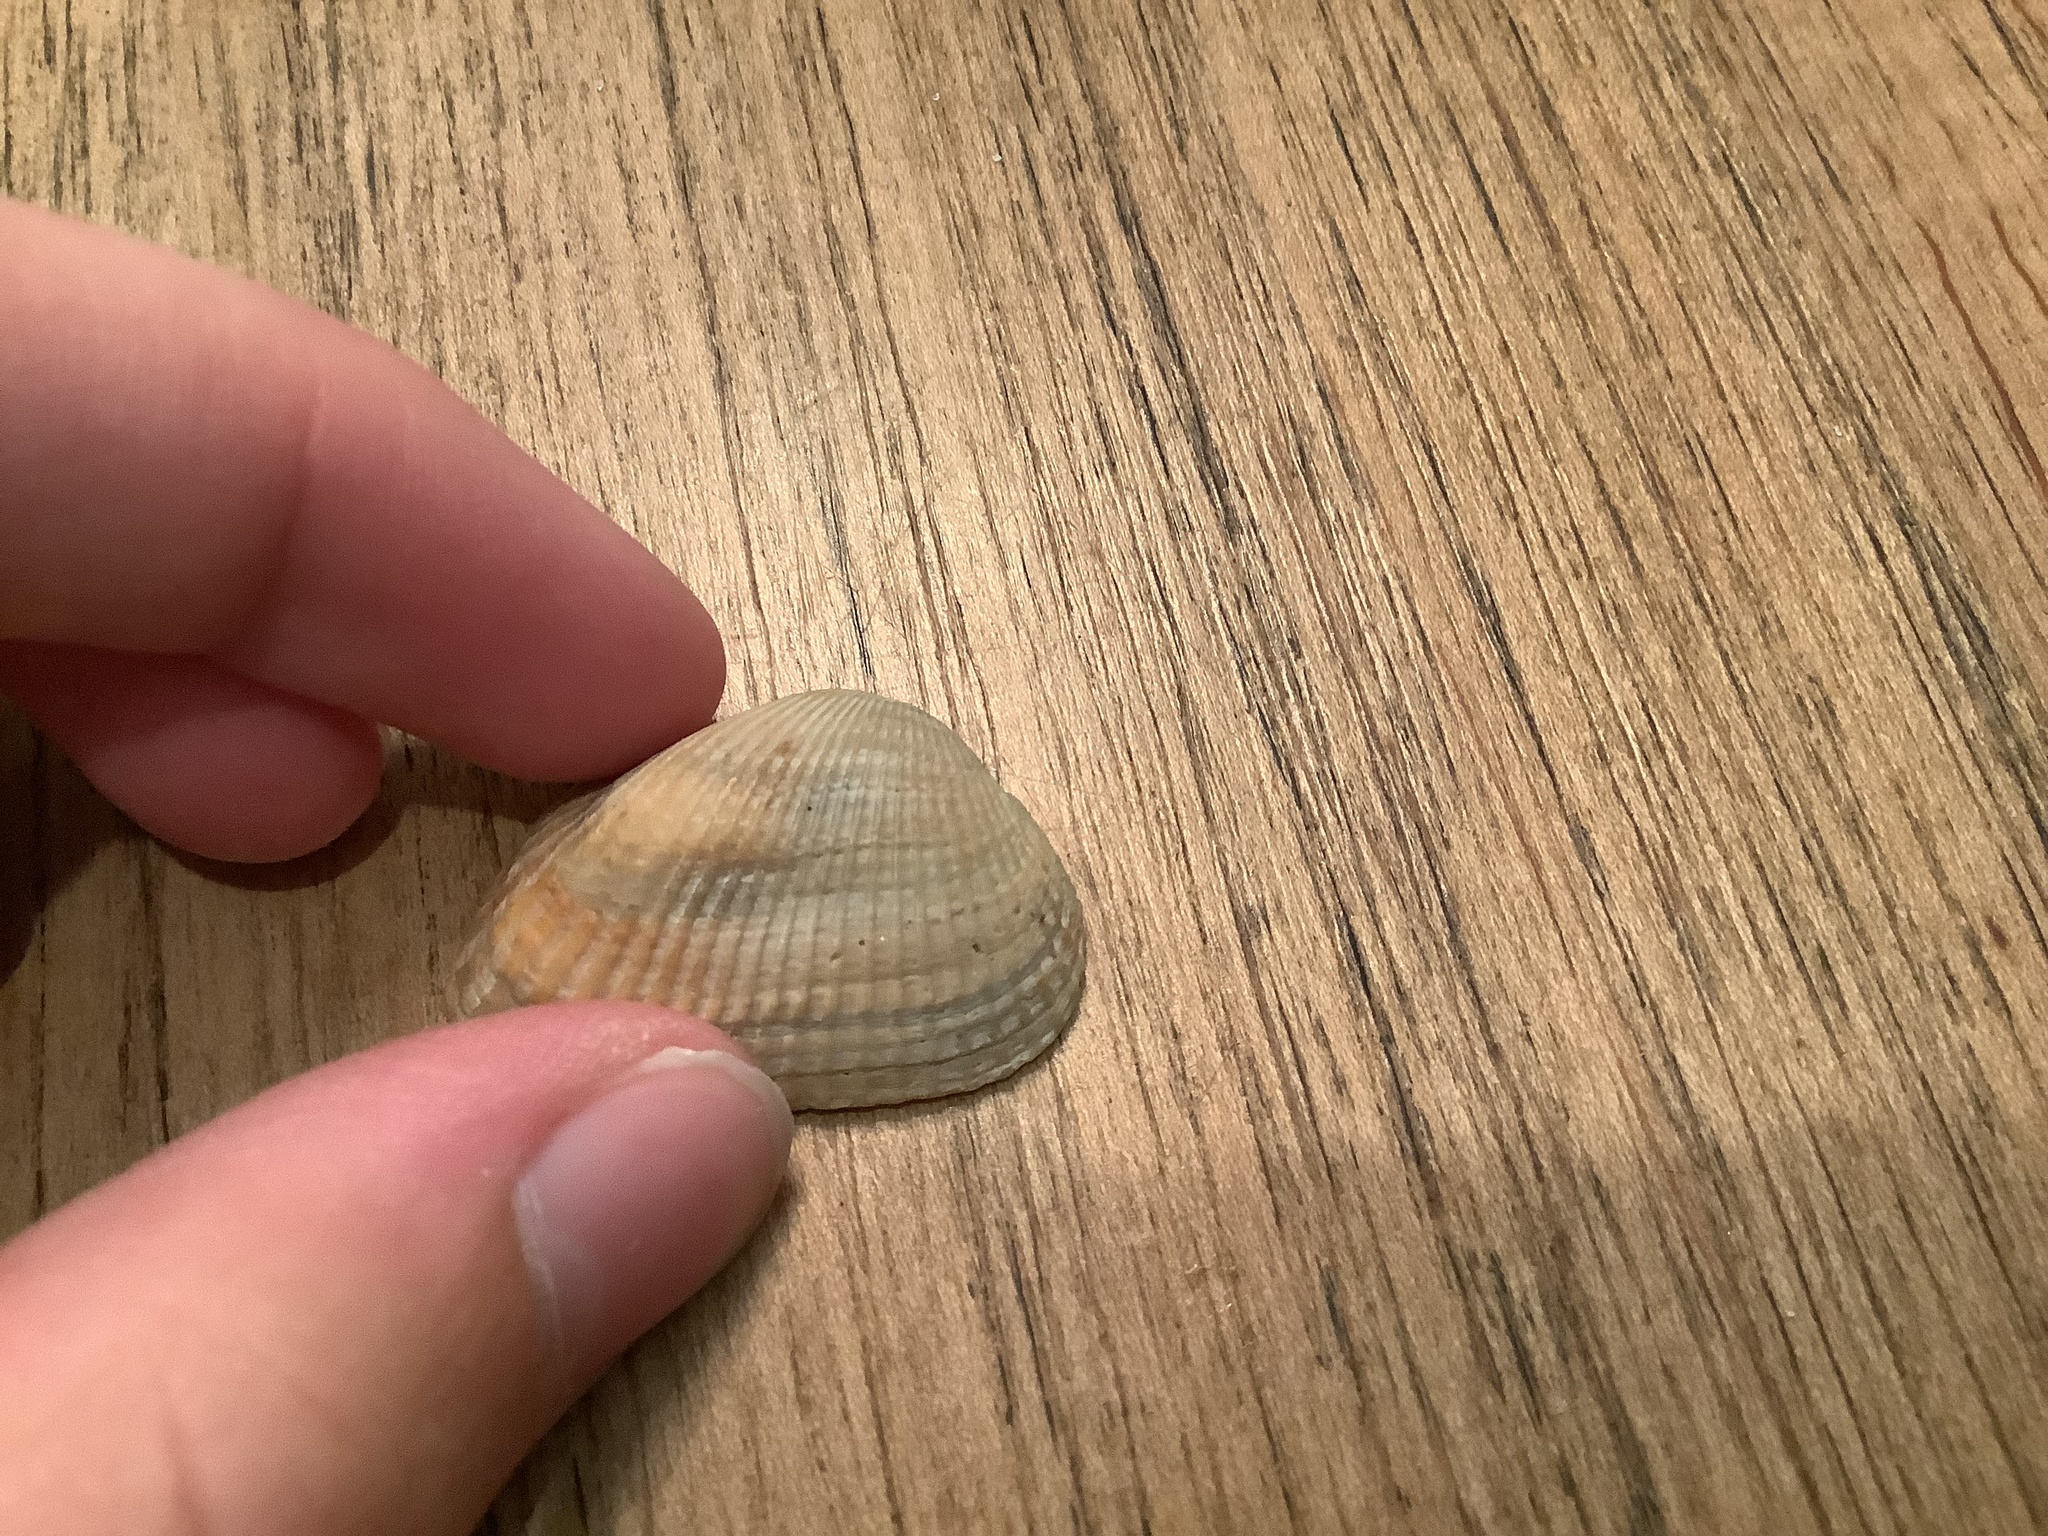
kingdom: Animalia
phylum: Mollusca
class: Bivalvia
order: Arcida
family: Arcidae
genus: Anadara
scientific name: Anadara transversa
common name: Transverse ark
